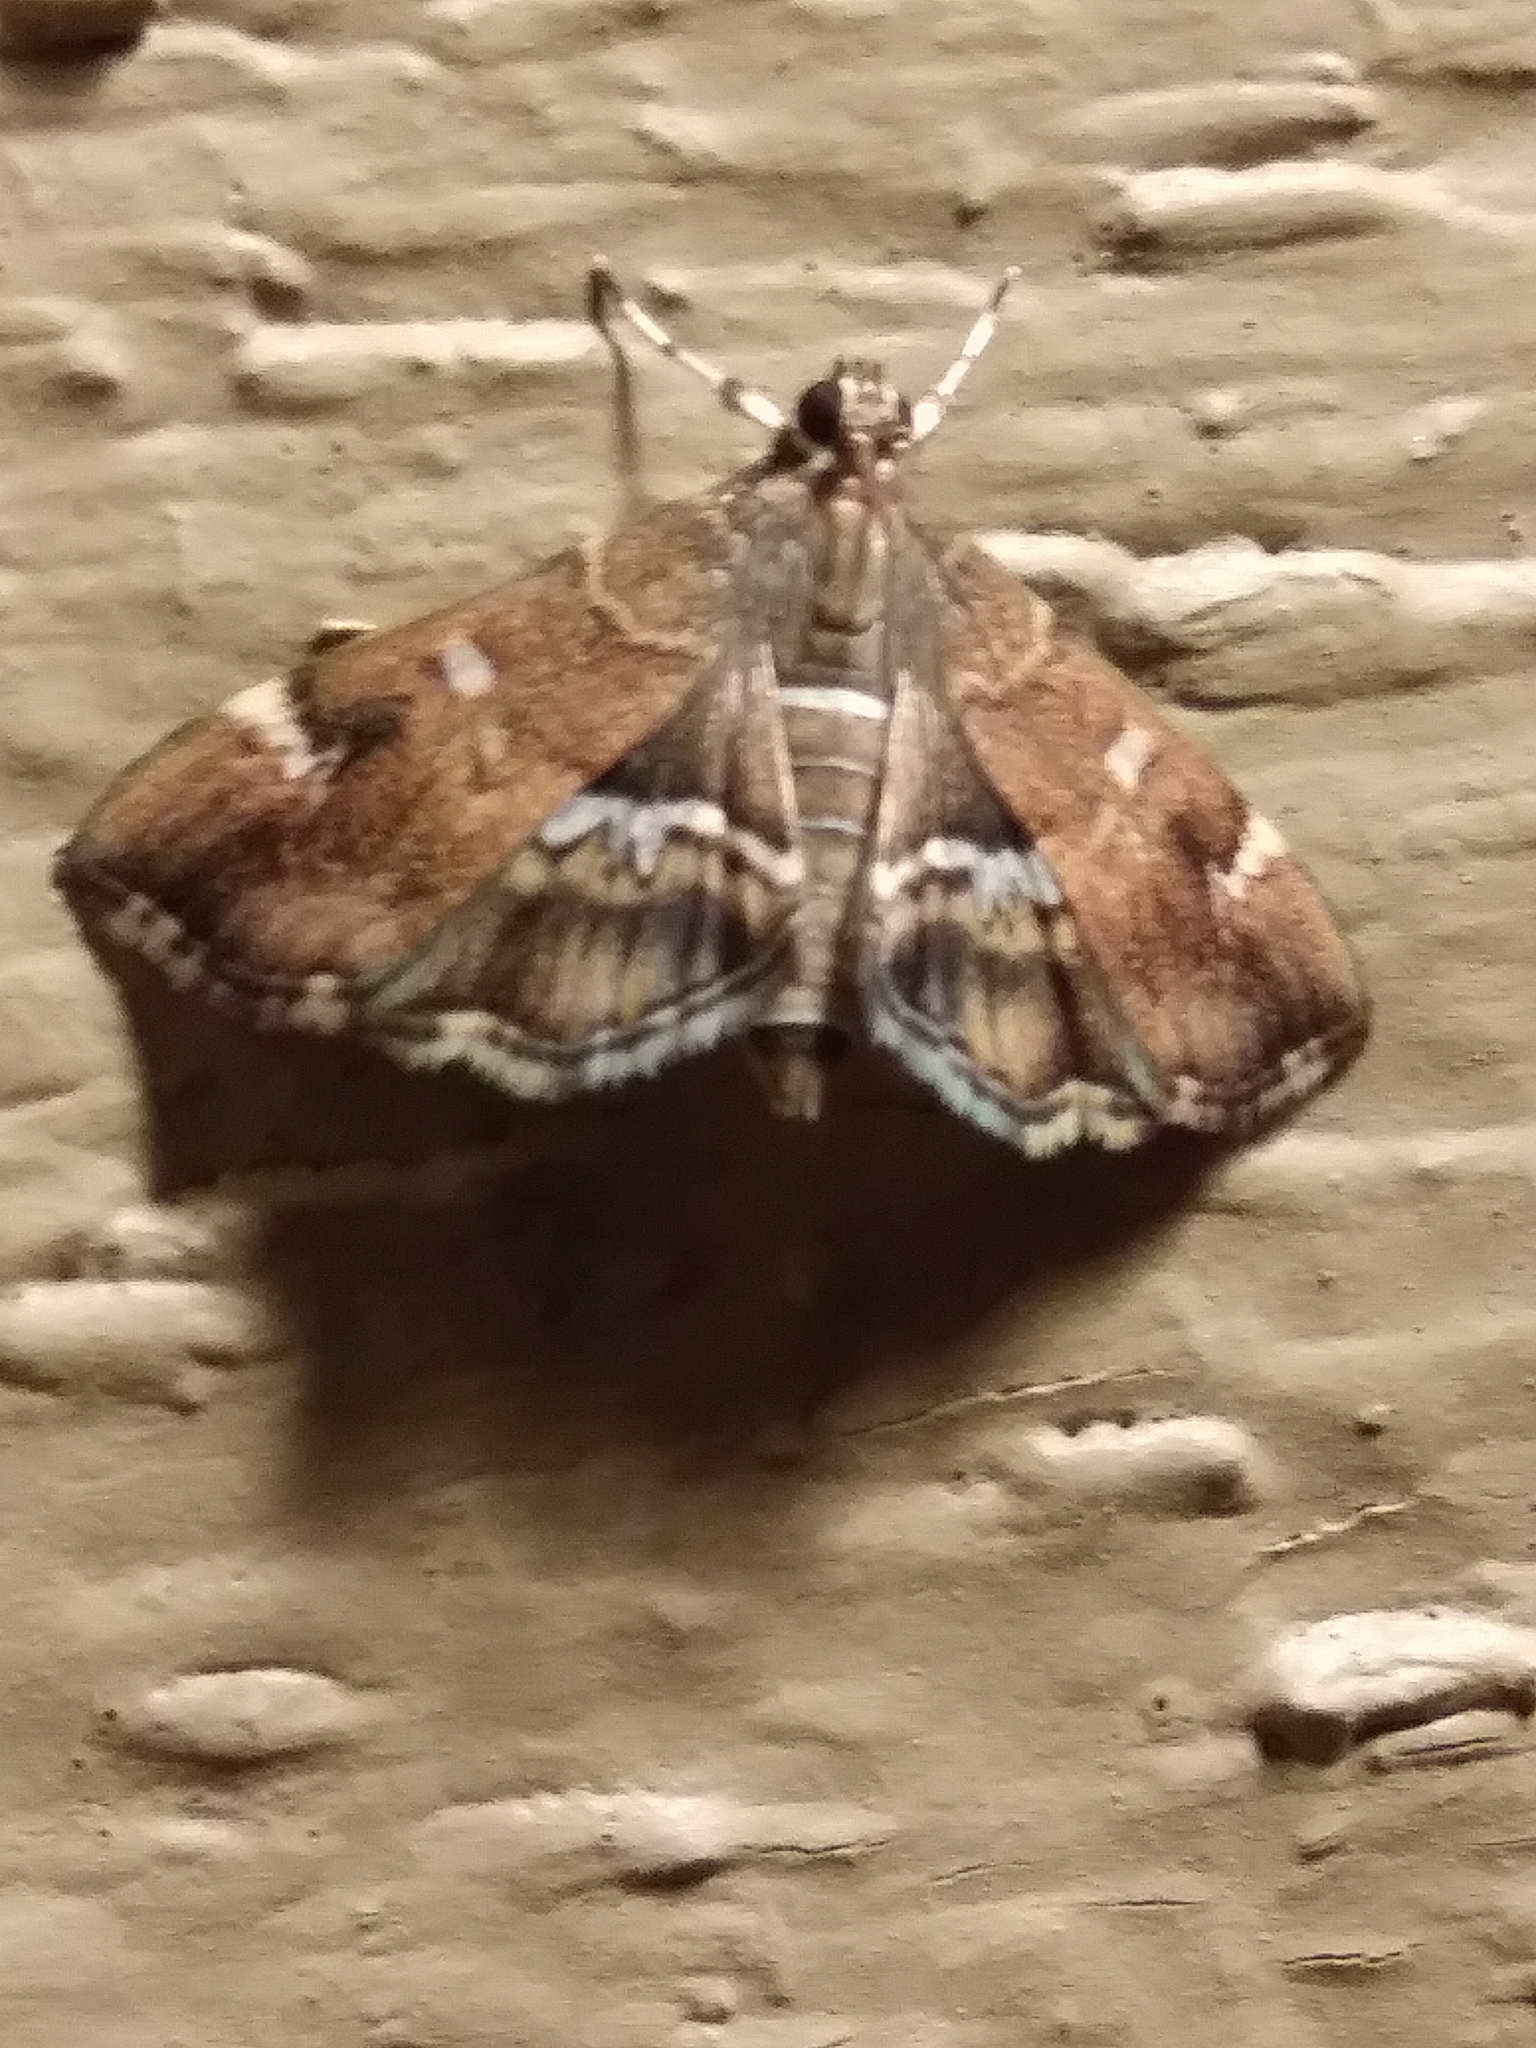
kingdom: Animalia
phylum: Arthropoda
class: Insecta
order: Lepidoptera
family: Crambidae
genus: Hymenia
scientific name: Hymenia perspectalis
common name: Spotted beet webworm
